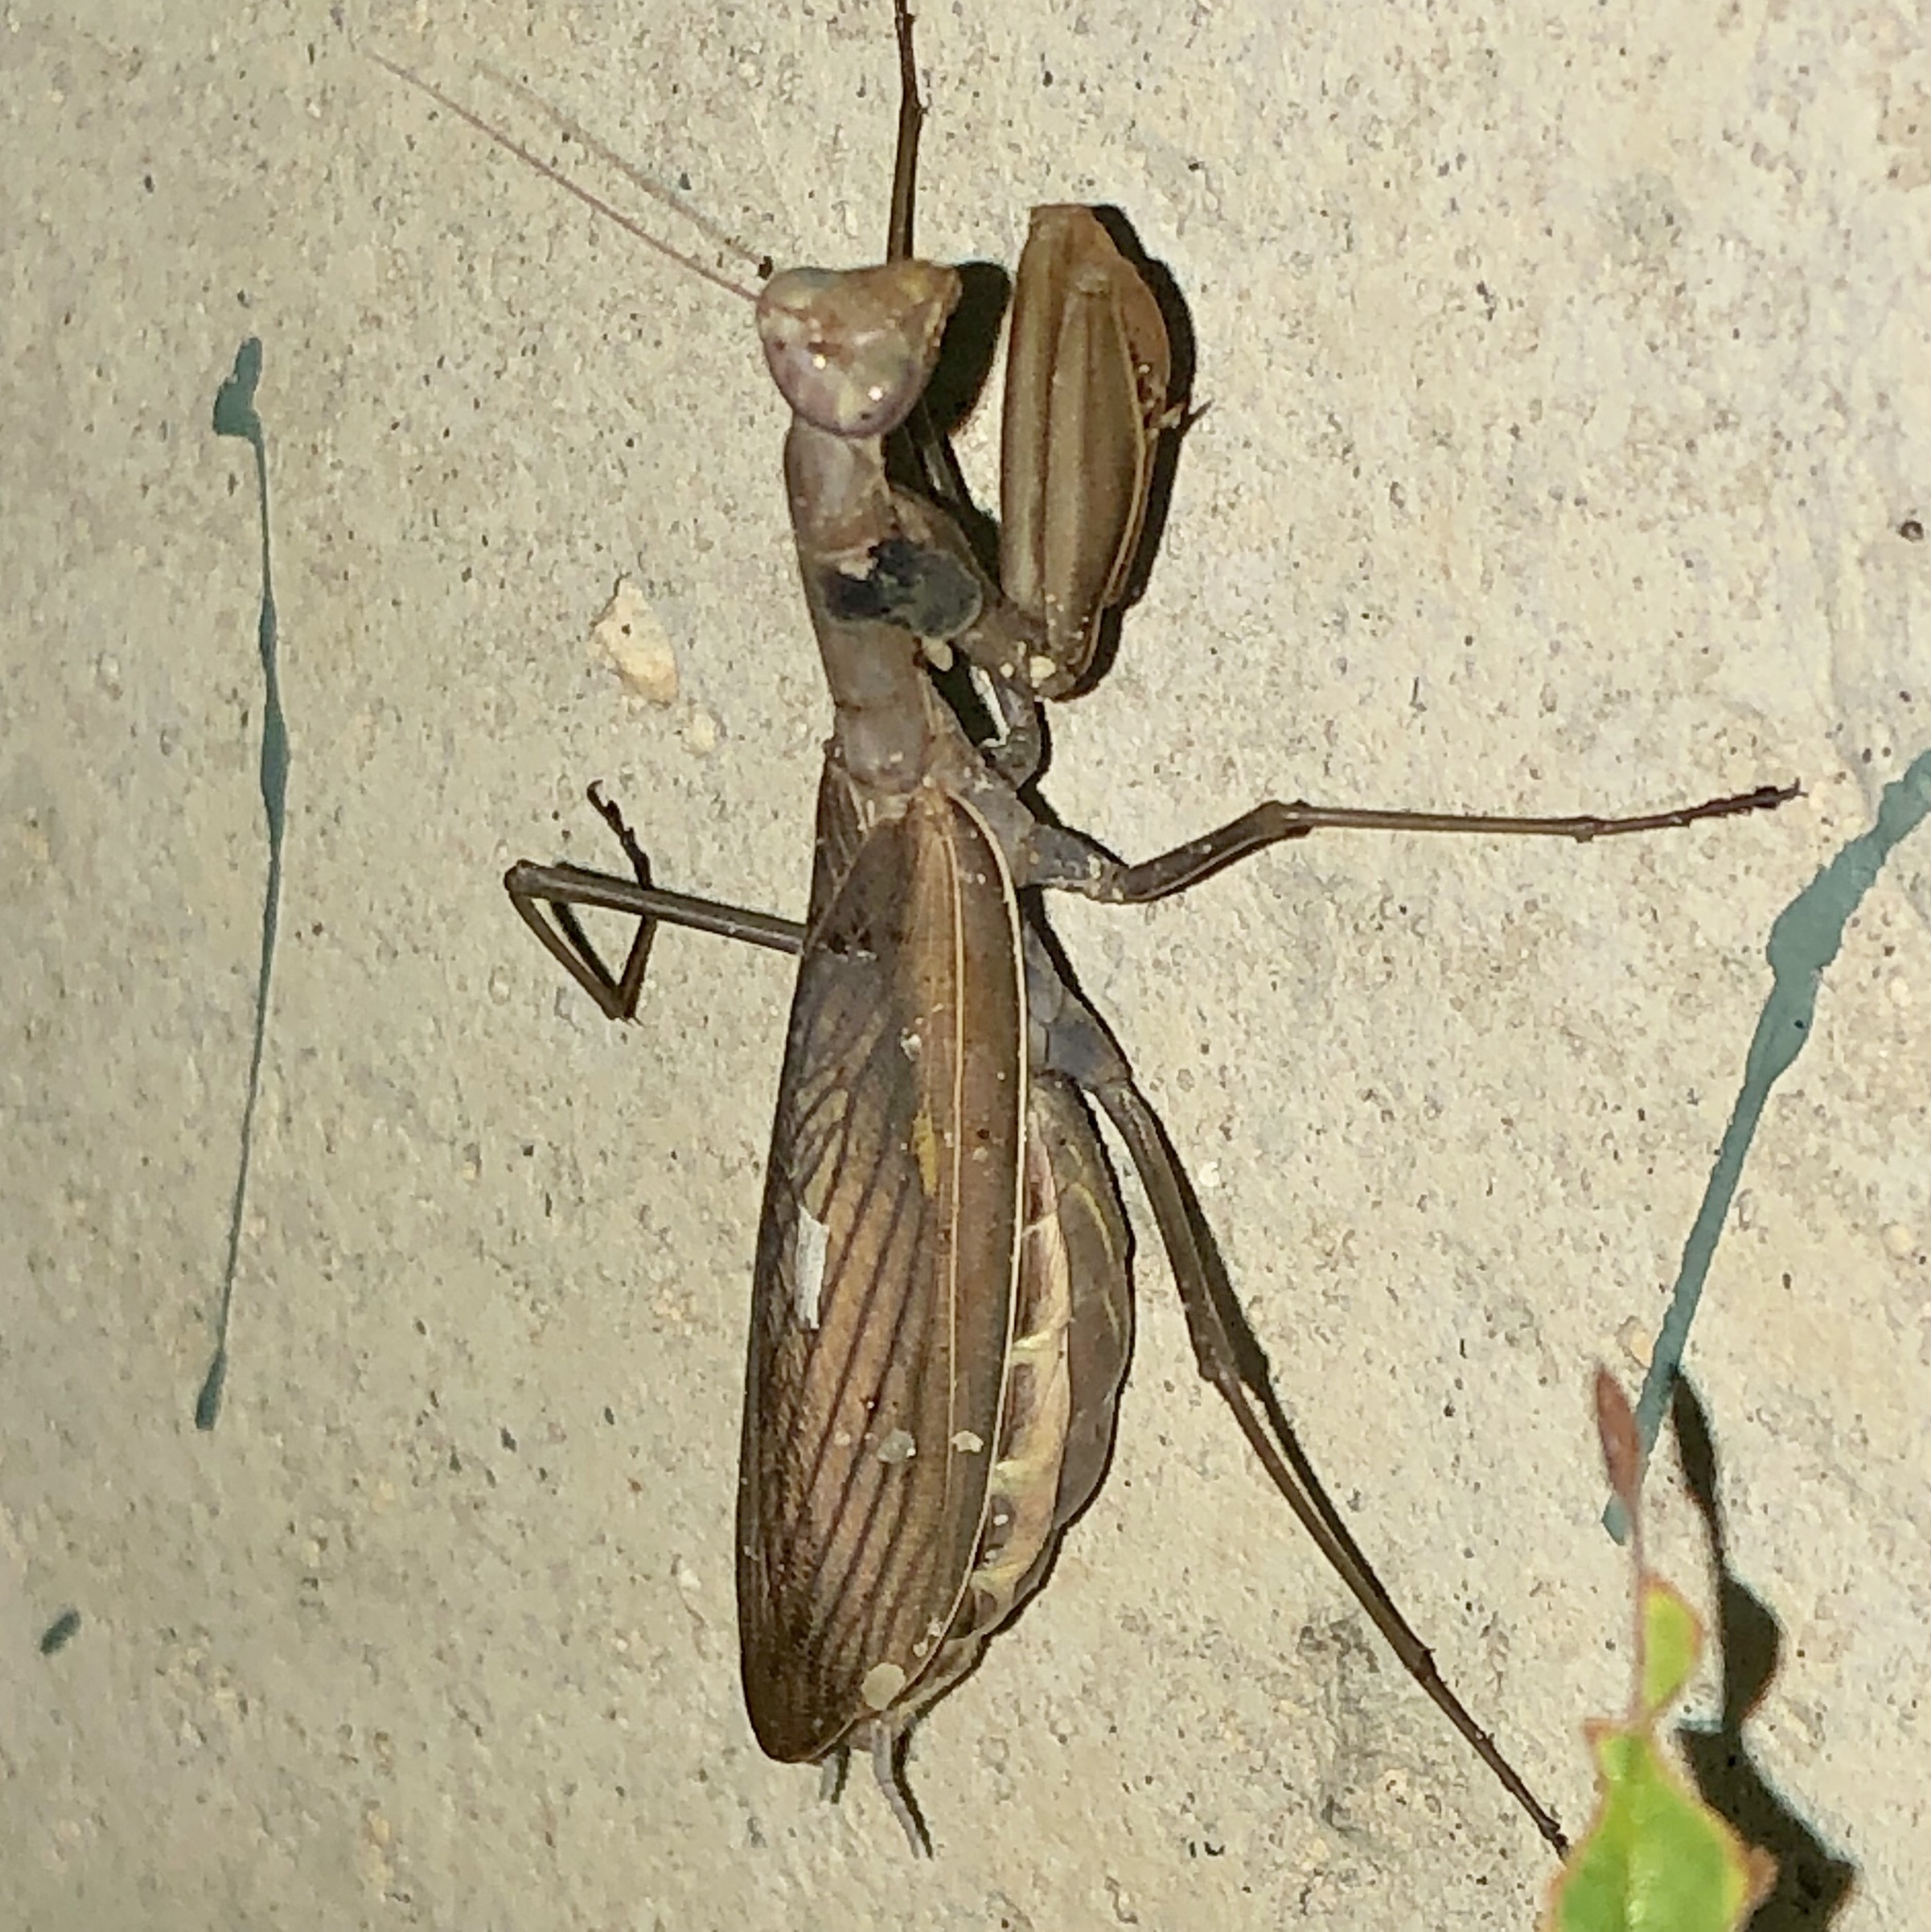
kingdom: Animalia
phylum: Arthropoda
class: Insecta
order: Mantodea
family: Mantidae
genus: Mantis
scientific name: Mantis religiosa
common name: Praying mantis
